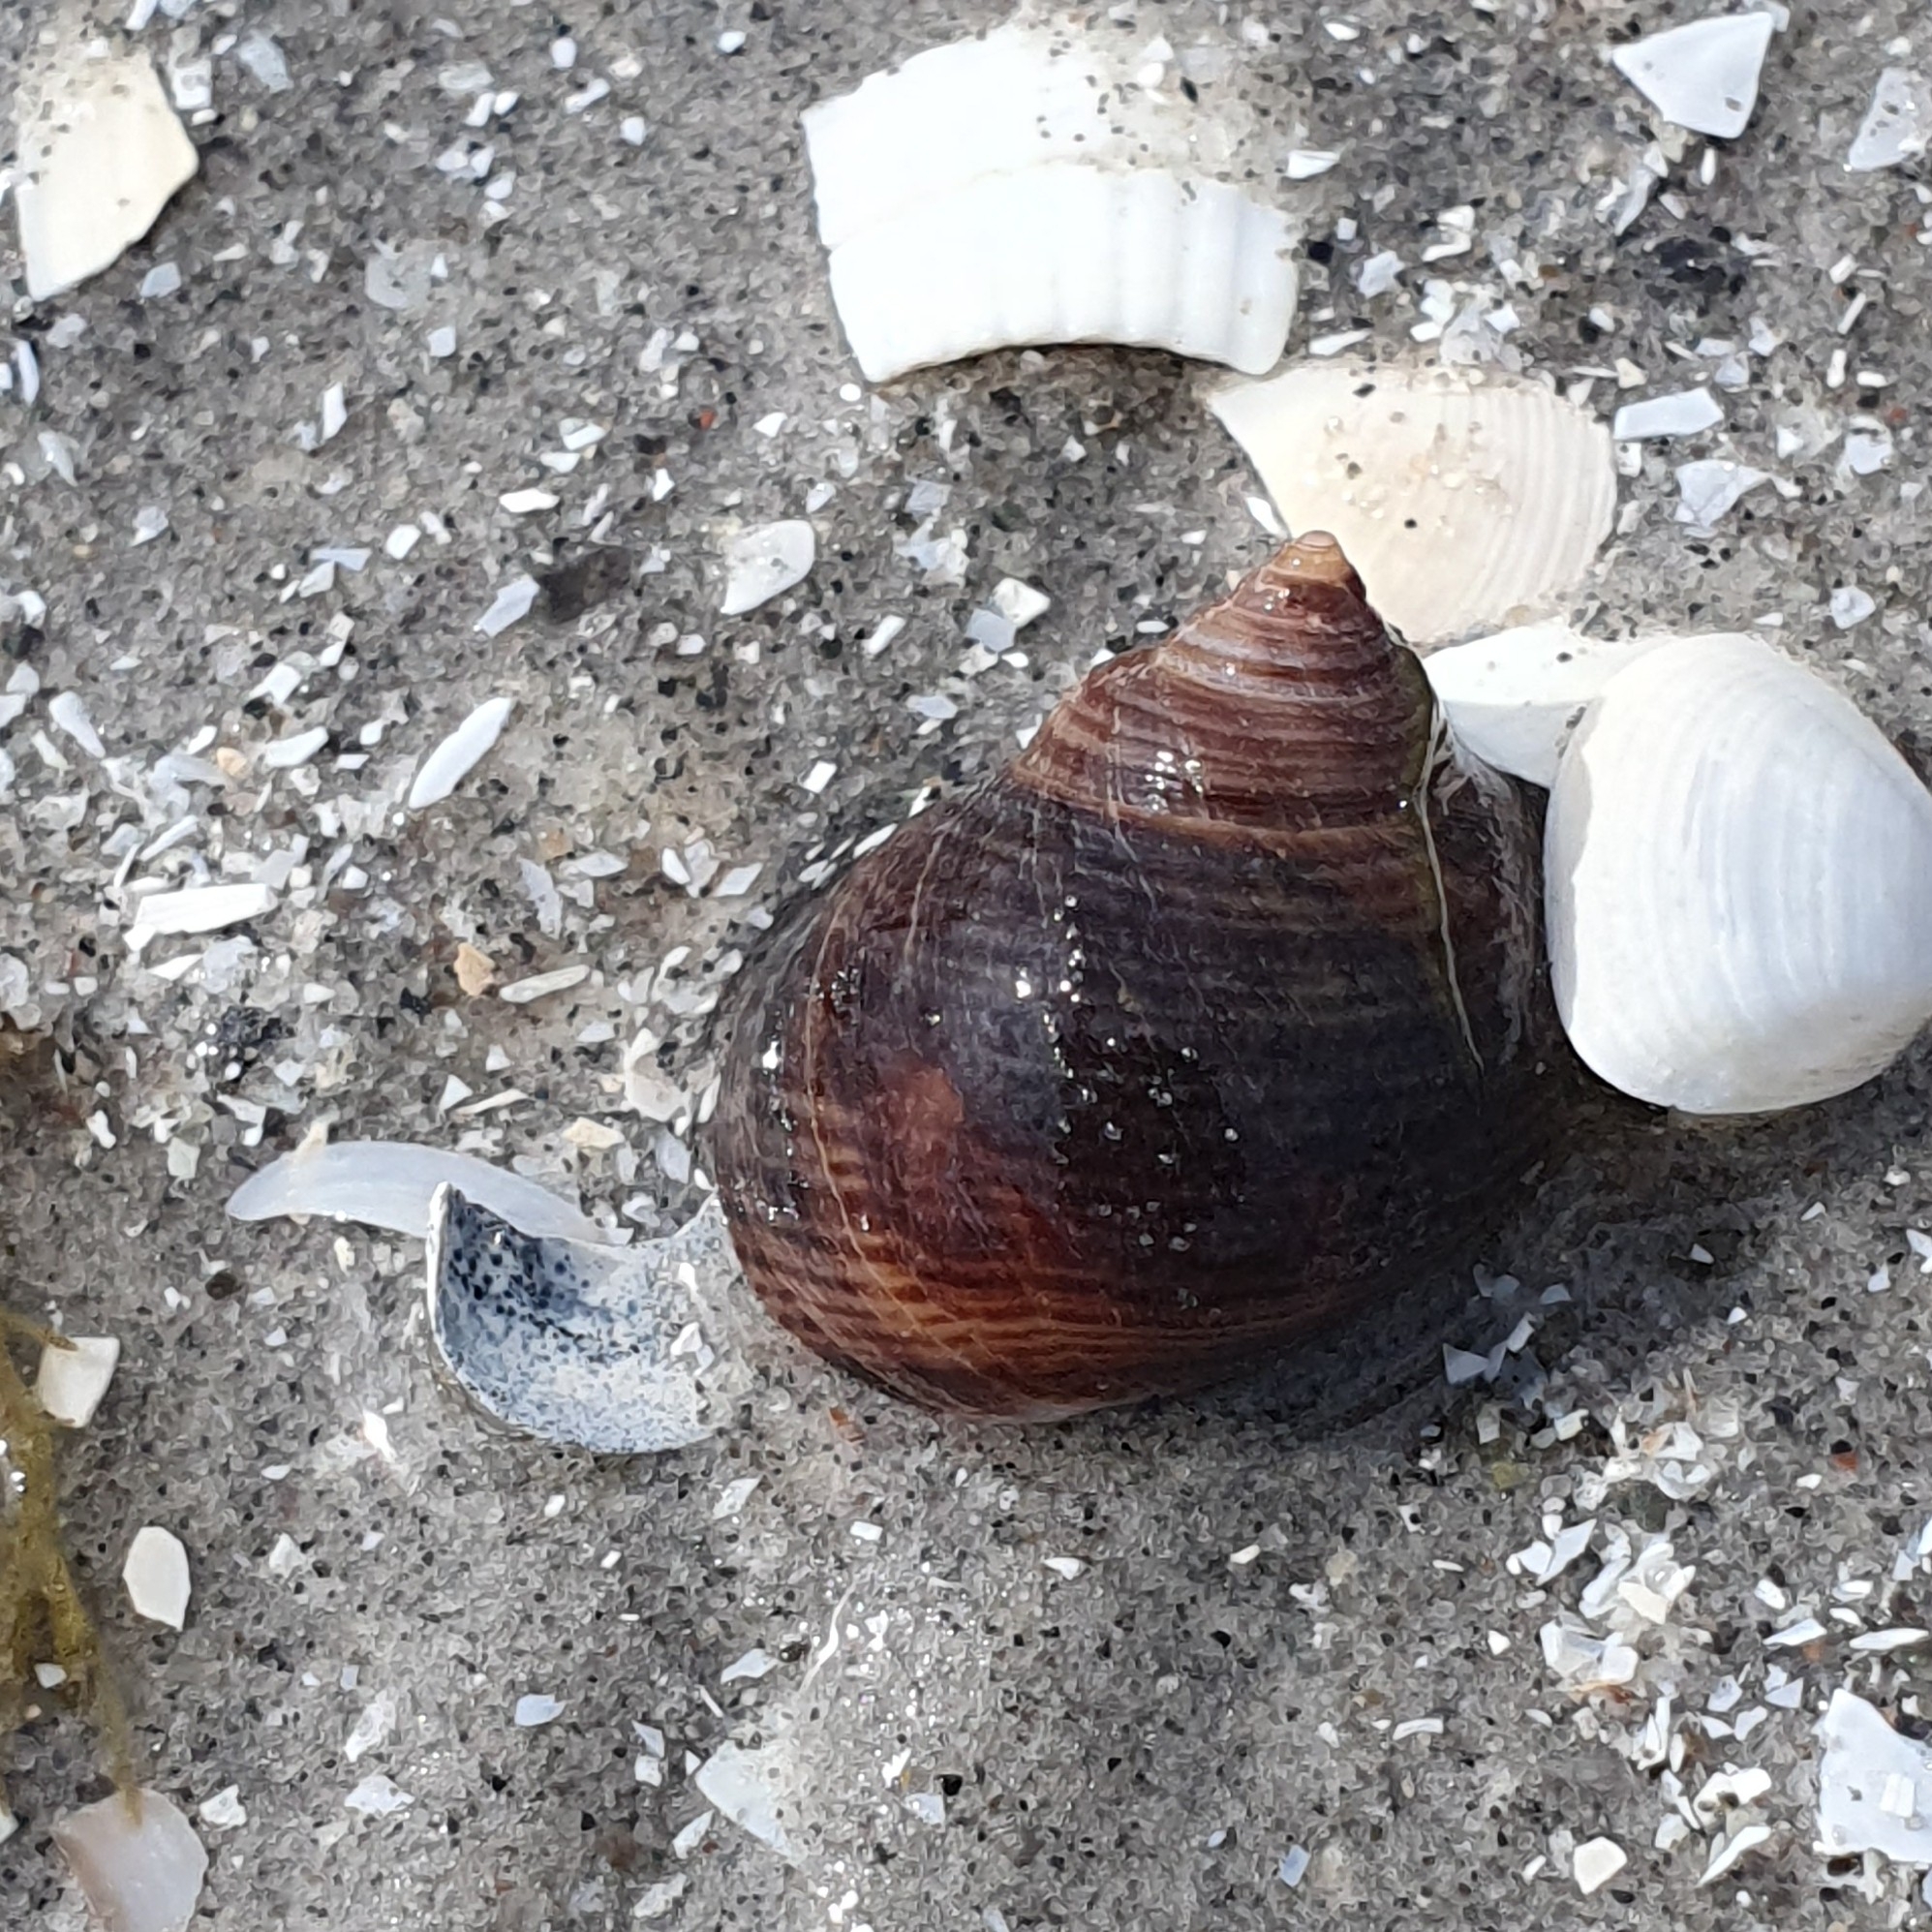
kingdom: Animalia
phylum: Mollusca
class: Gastropoda
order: Littorinimorpha
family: Littorinidae
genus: Littorina
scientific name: Littorina littorea
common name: Common periwinkle
